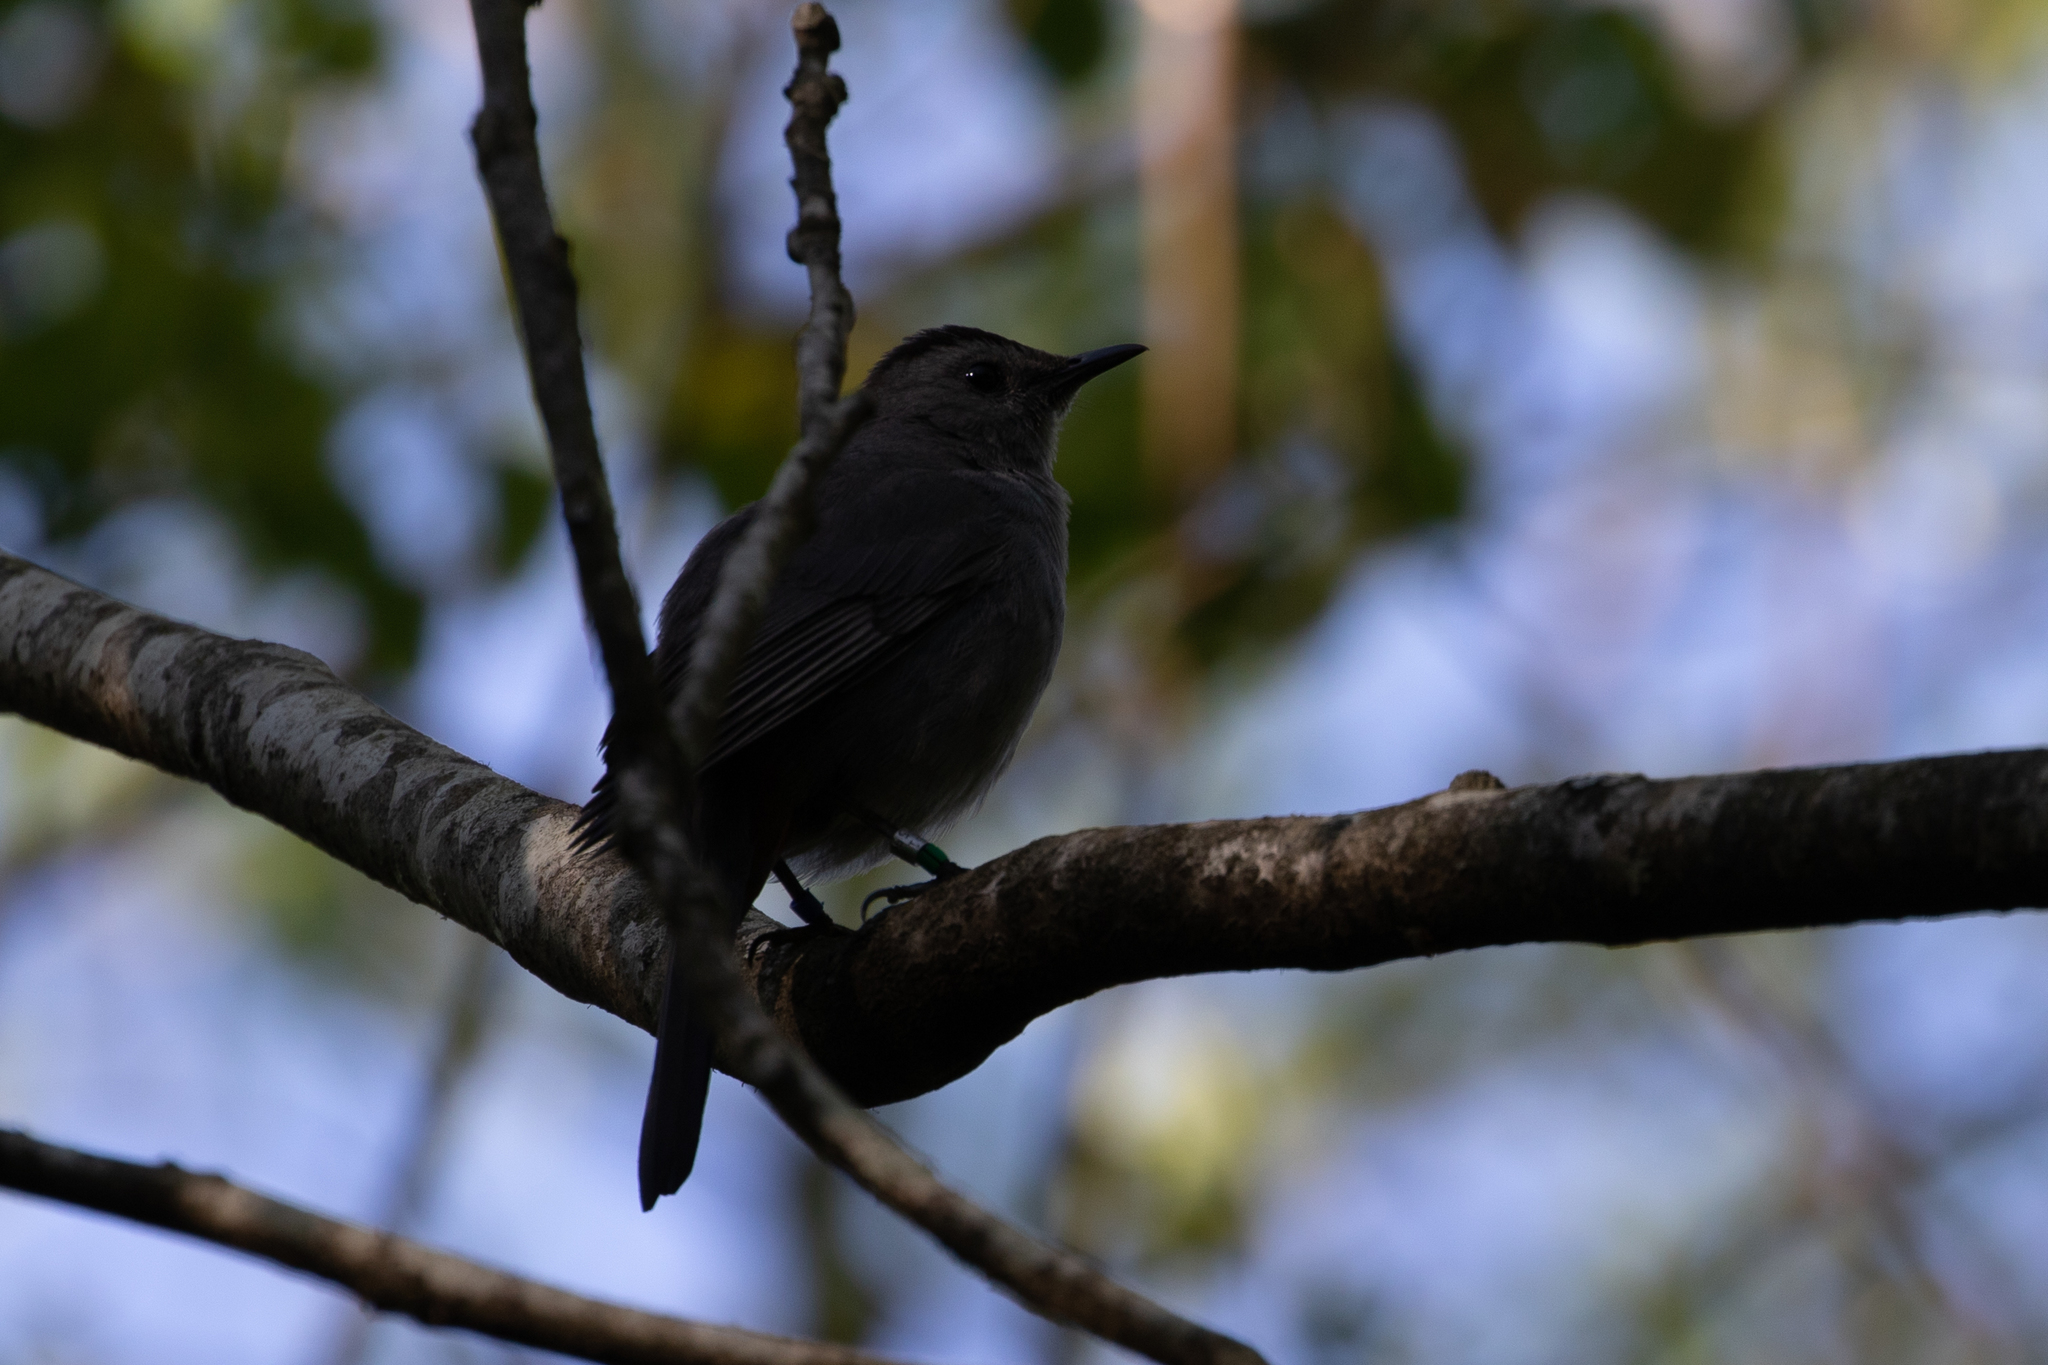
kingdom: Animalia
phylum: Chordata
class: Aves
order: Passeriformes
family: Mimidae
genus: Dumetella
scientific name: Dumetella carolinensis
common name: Gray catbird
